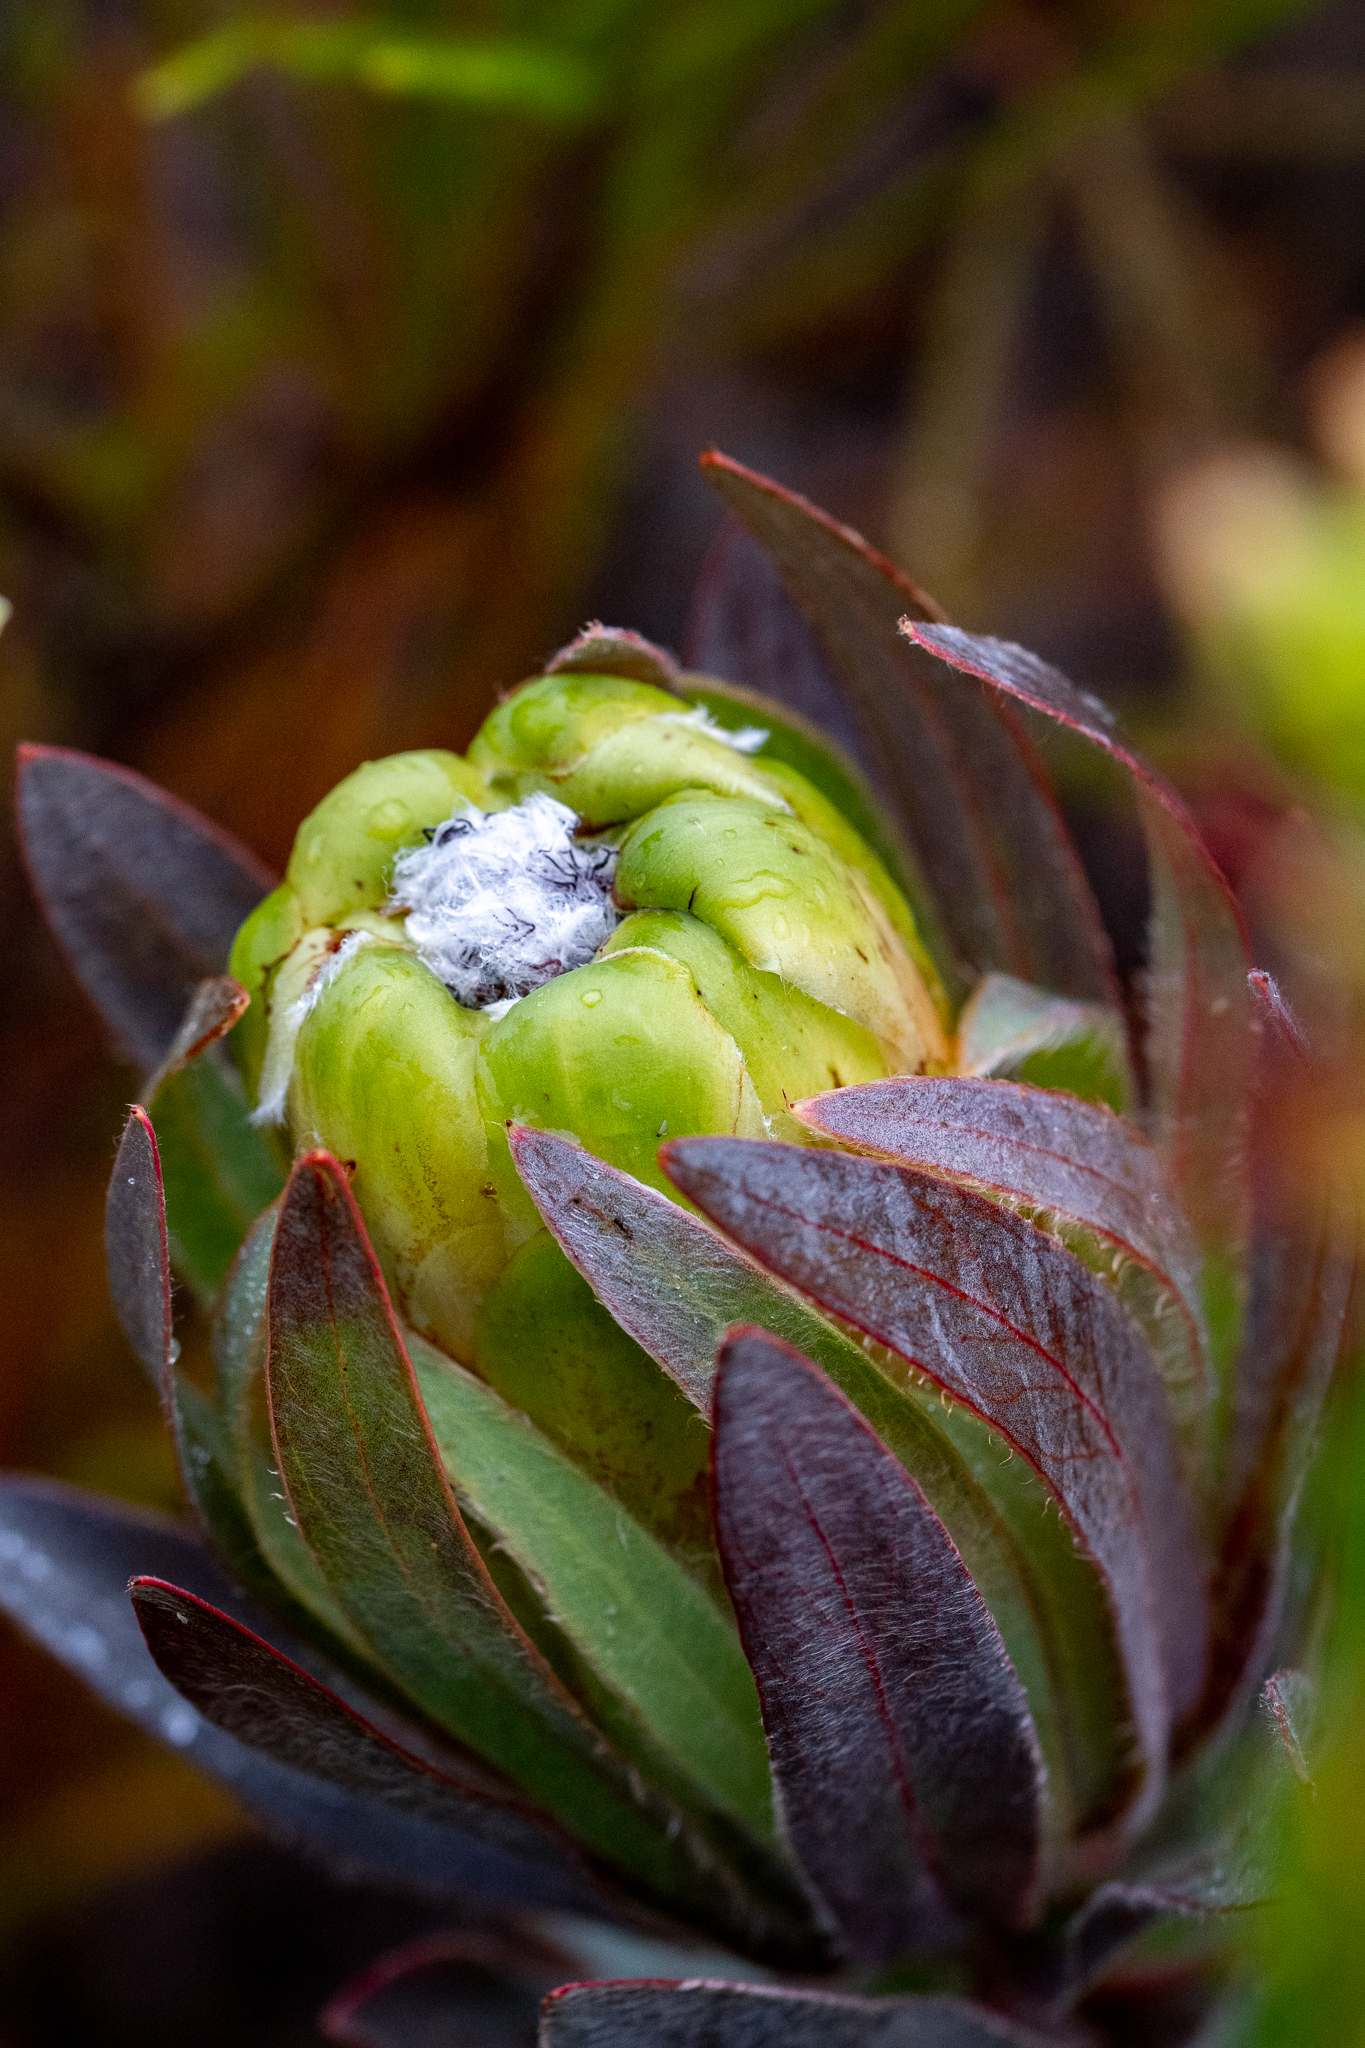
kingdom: Plantae
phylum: Tracheophyta
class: Magnoliopsida
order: Proteales
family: Proteaceae
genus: Protea
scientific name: Protea coronata
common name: Green sugarbush
